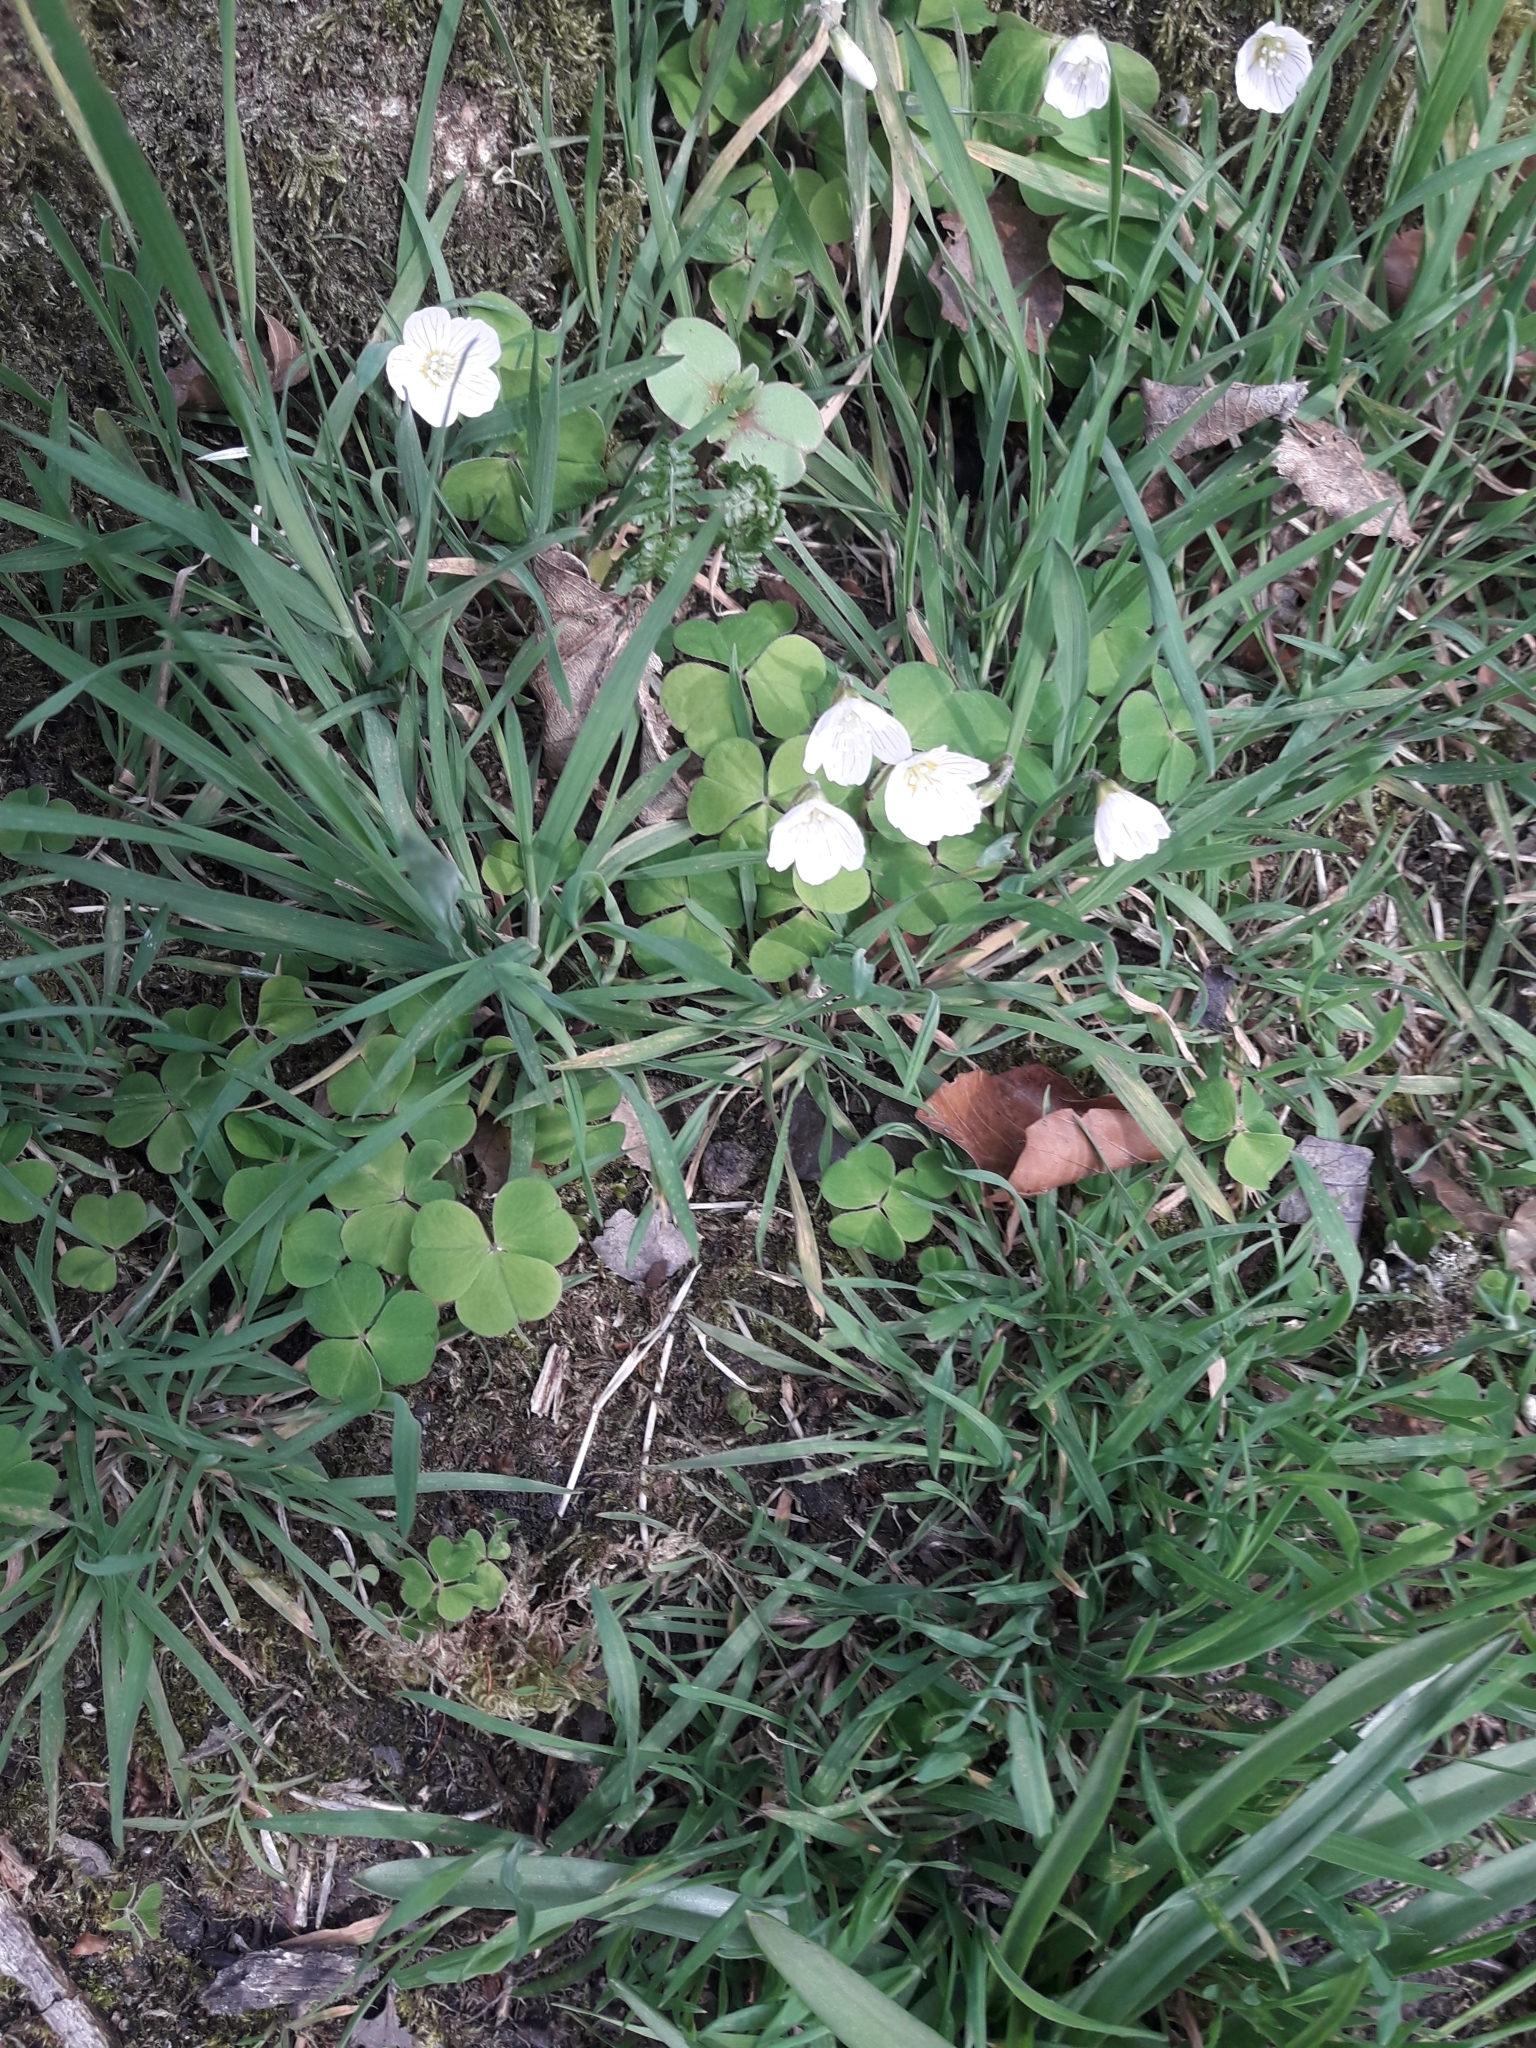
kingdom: Plantae
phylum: Tracheophyta
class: Magnoliopsida
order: Oxalidales
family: Oxalidaceae
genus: Oxalis
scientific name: Oxalis acetosella
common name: Wood-sorrel
